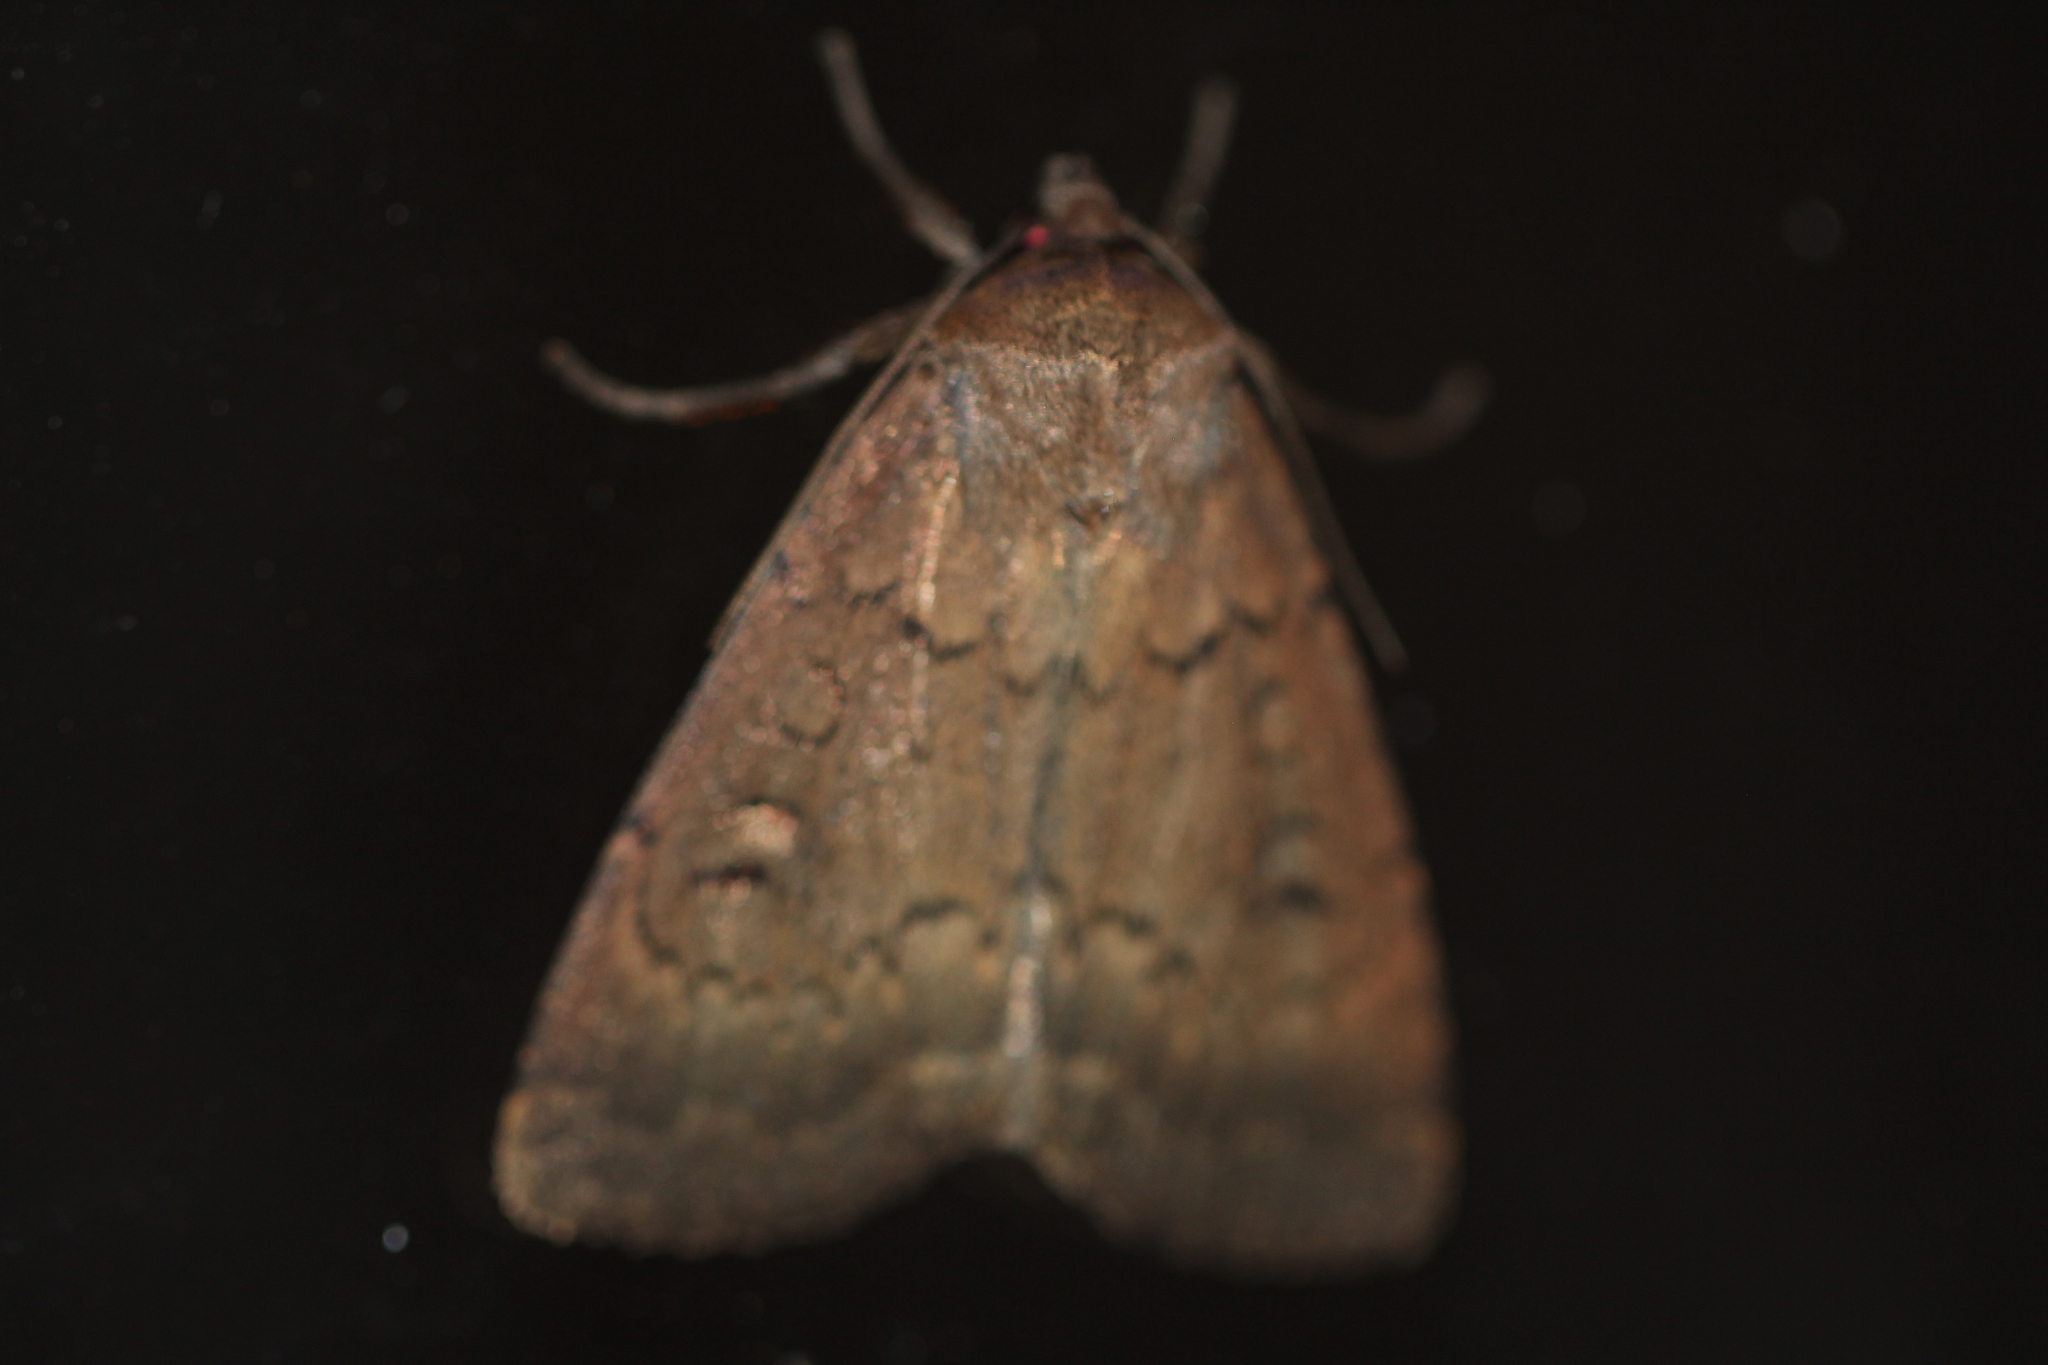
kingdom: Animalia
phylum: Arthropoda
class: Insecta
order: Lepidoptera
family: Noctuidae
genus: Graphiphora
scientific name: Graphiphora augur
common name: Double dart
